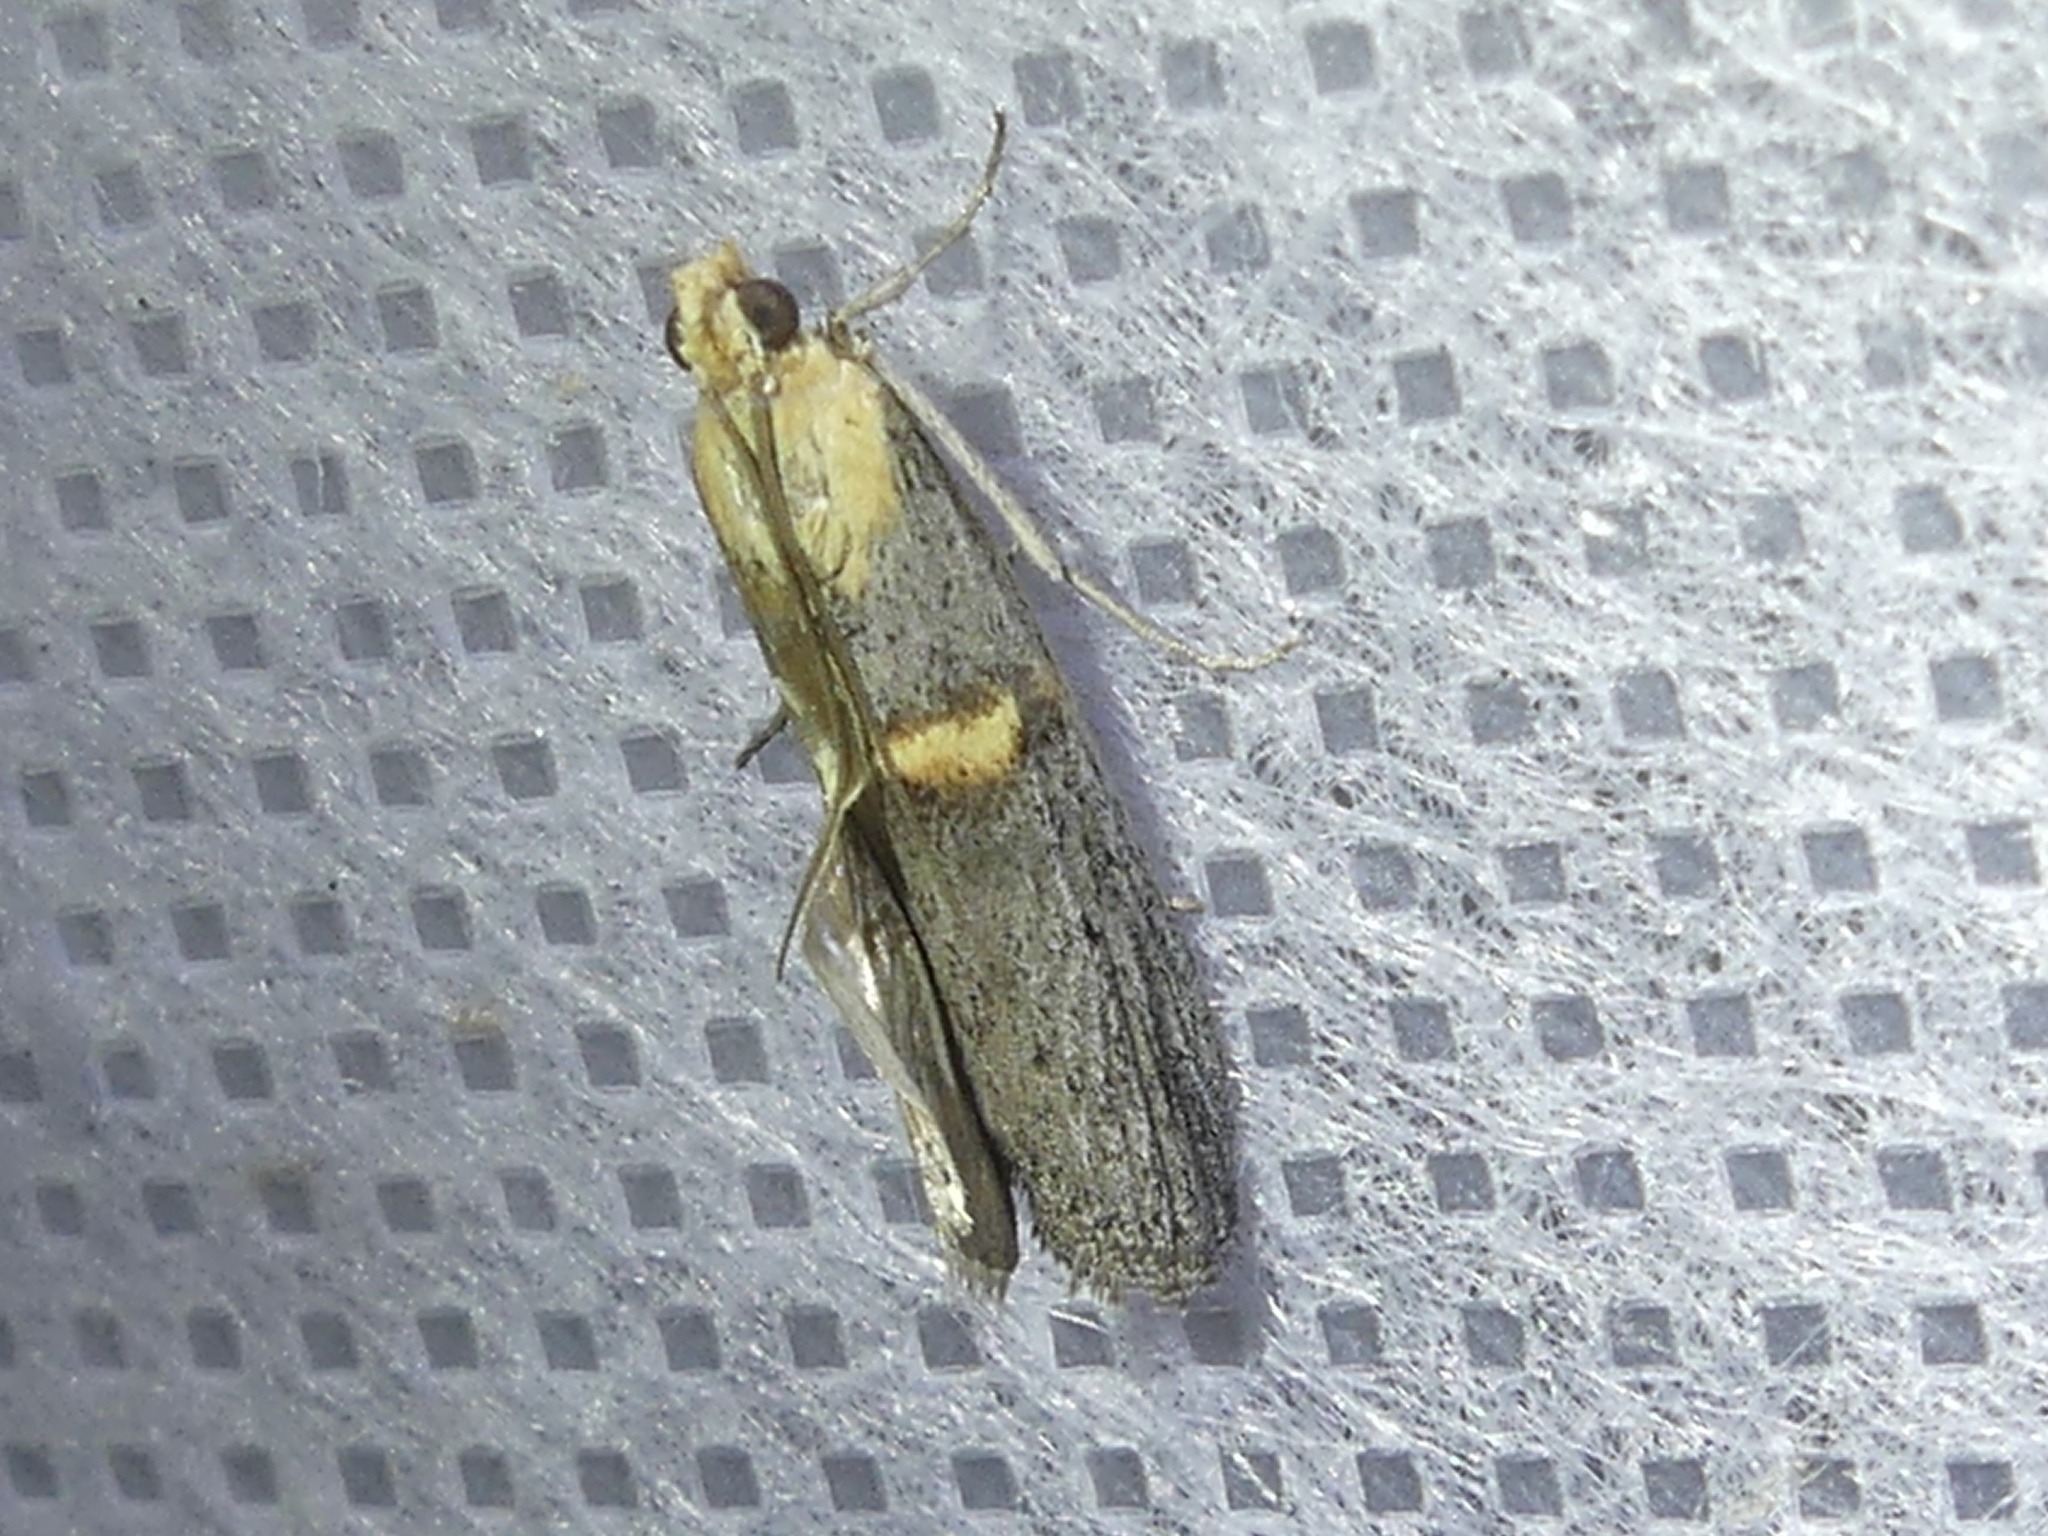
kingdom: Animalia
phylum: Arthropoda
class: Insecta
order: Lepidoptera
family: Pyralidae
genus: Oxybia
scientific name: Oxybia transversella
